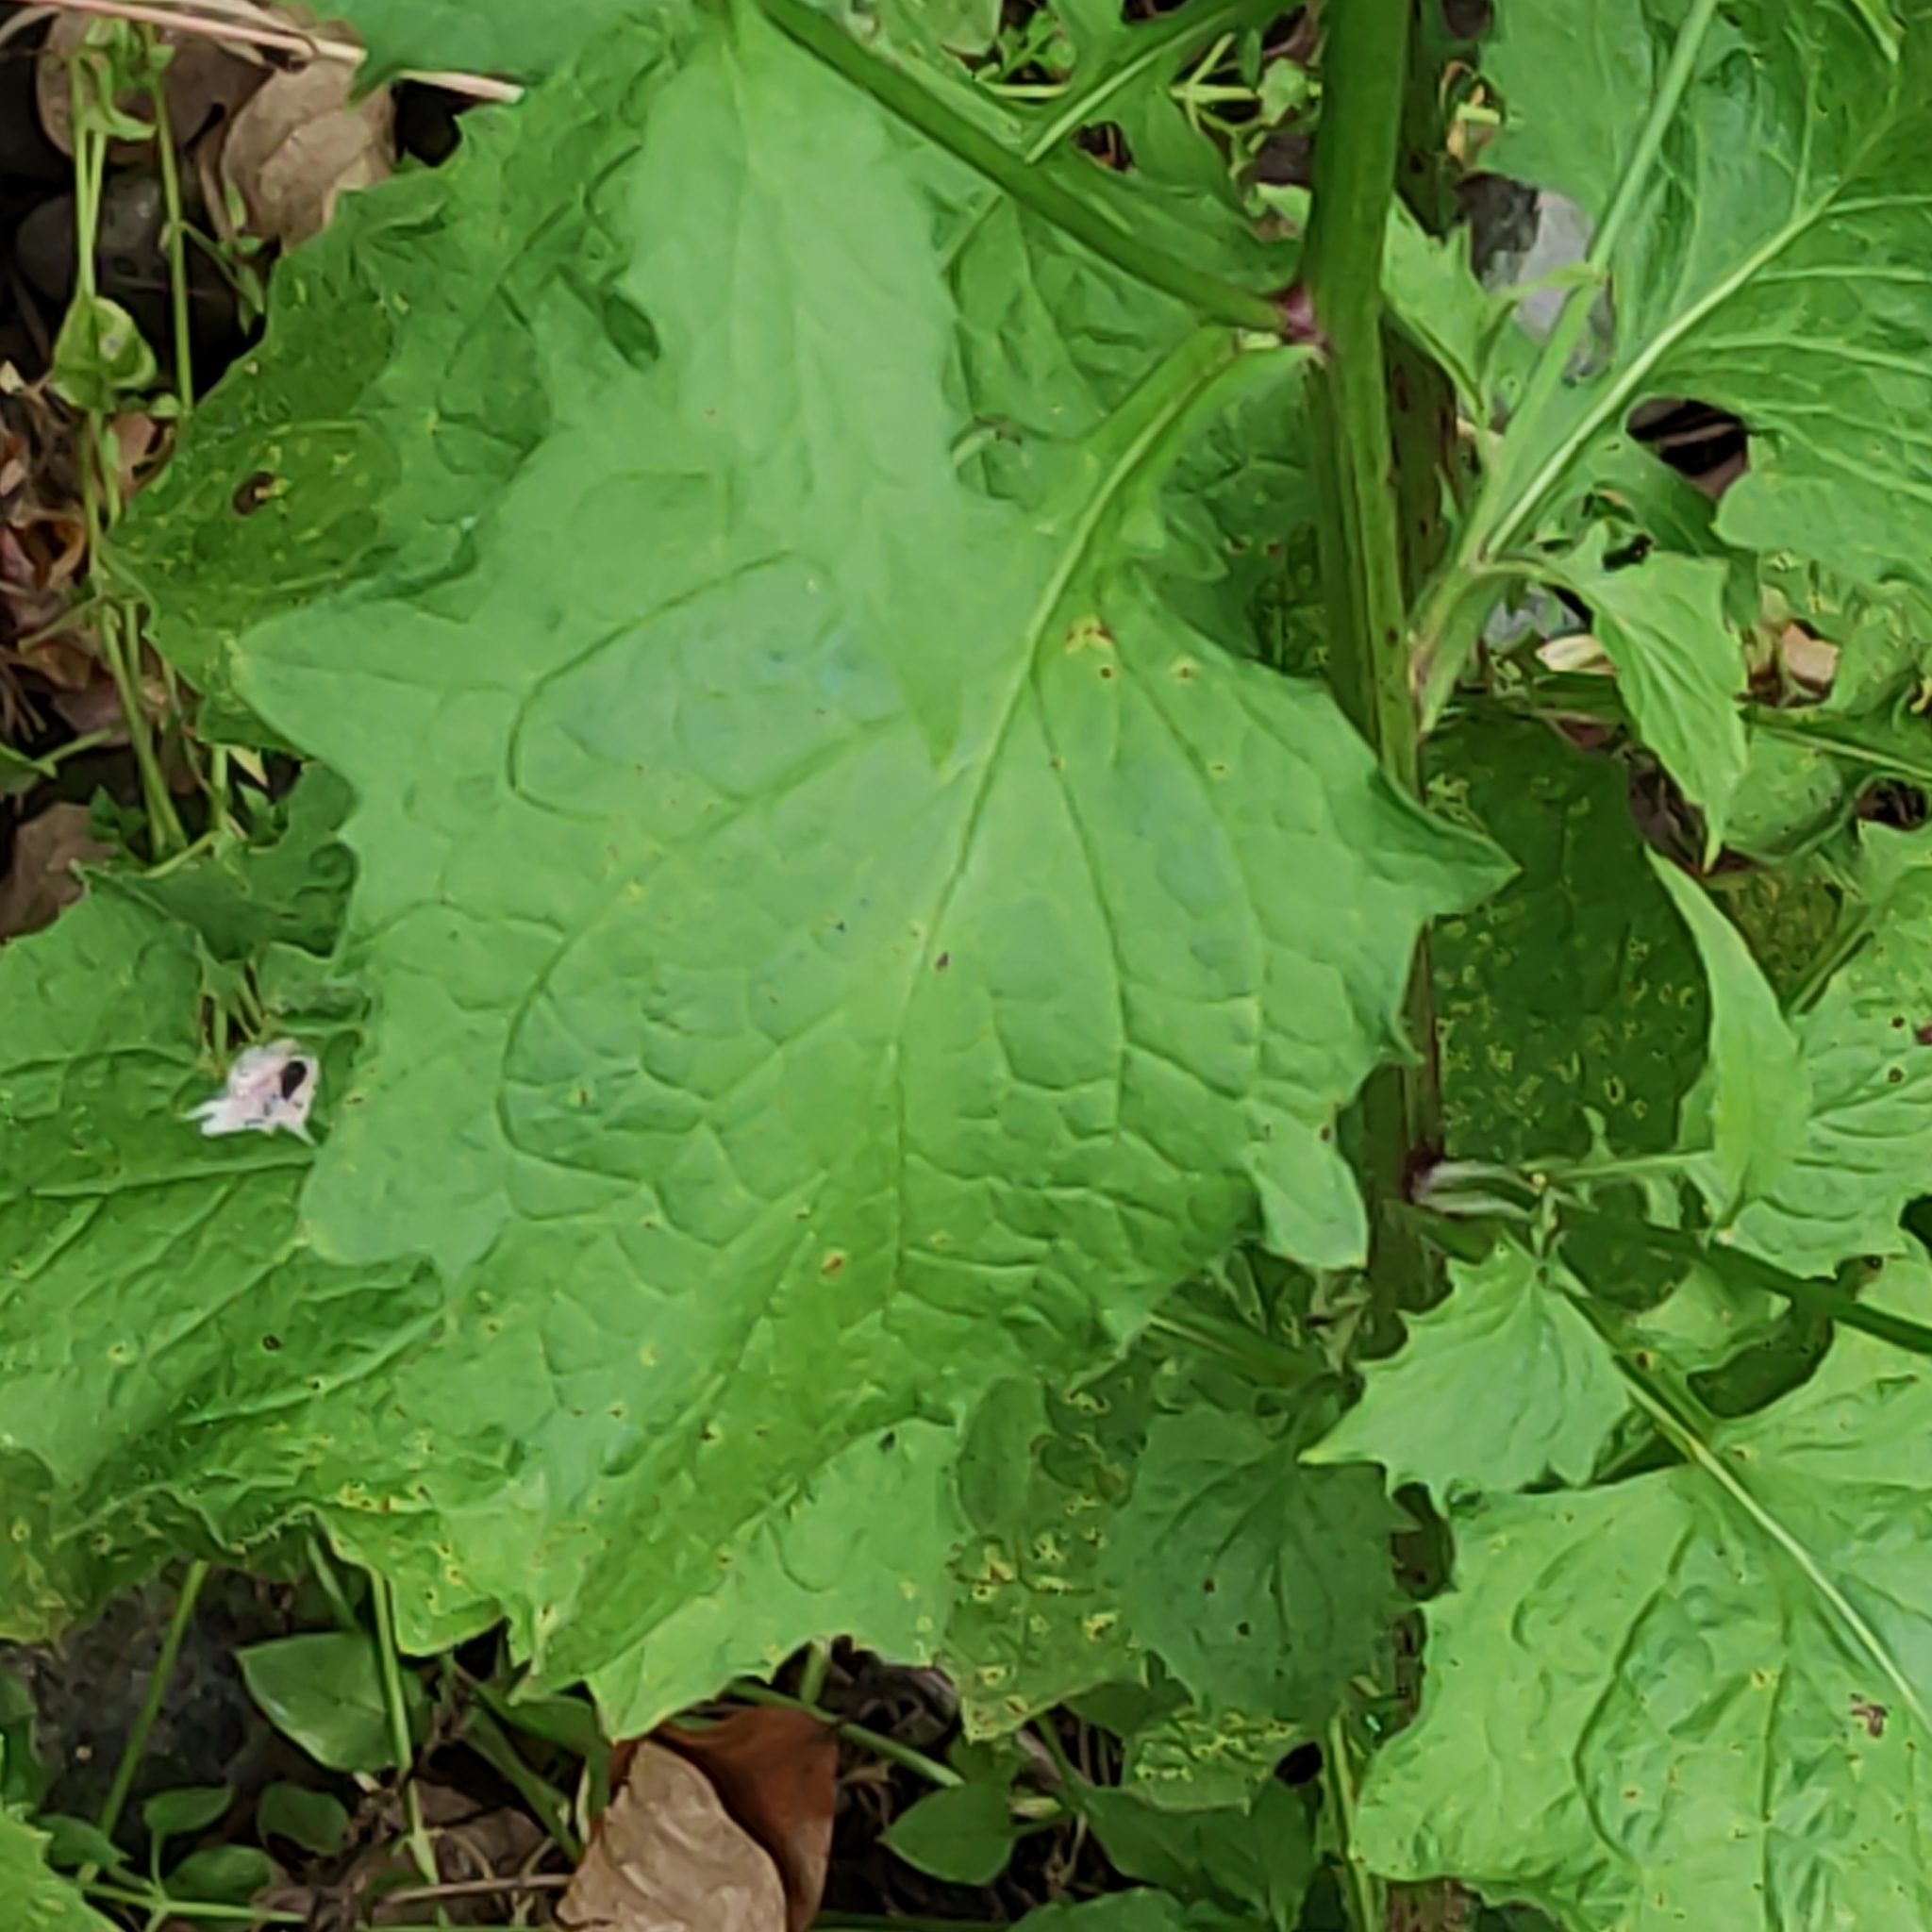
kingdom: Plantae
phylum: Tracheophyta
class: Magnoliopsida
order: Asterales
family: Asteraceae
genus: Mycelis
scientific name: Mycelis muralis
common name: Wall lettuce
